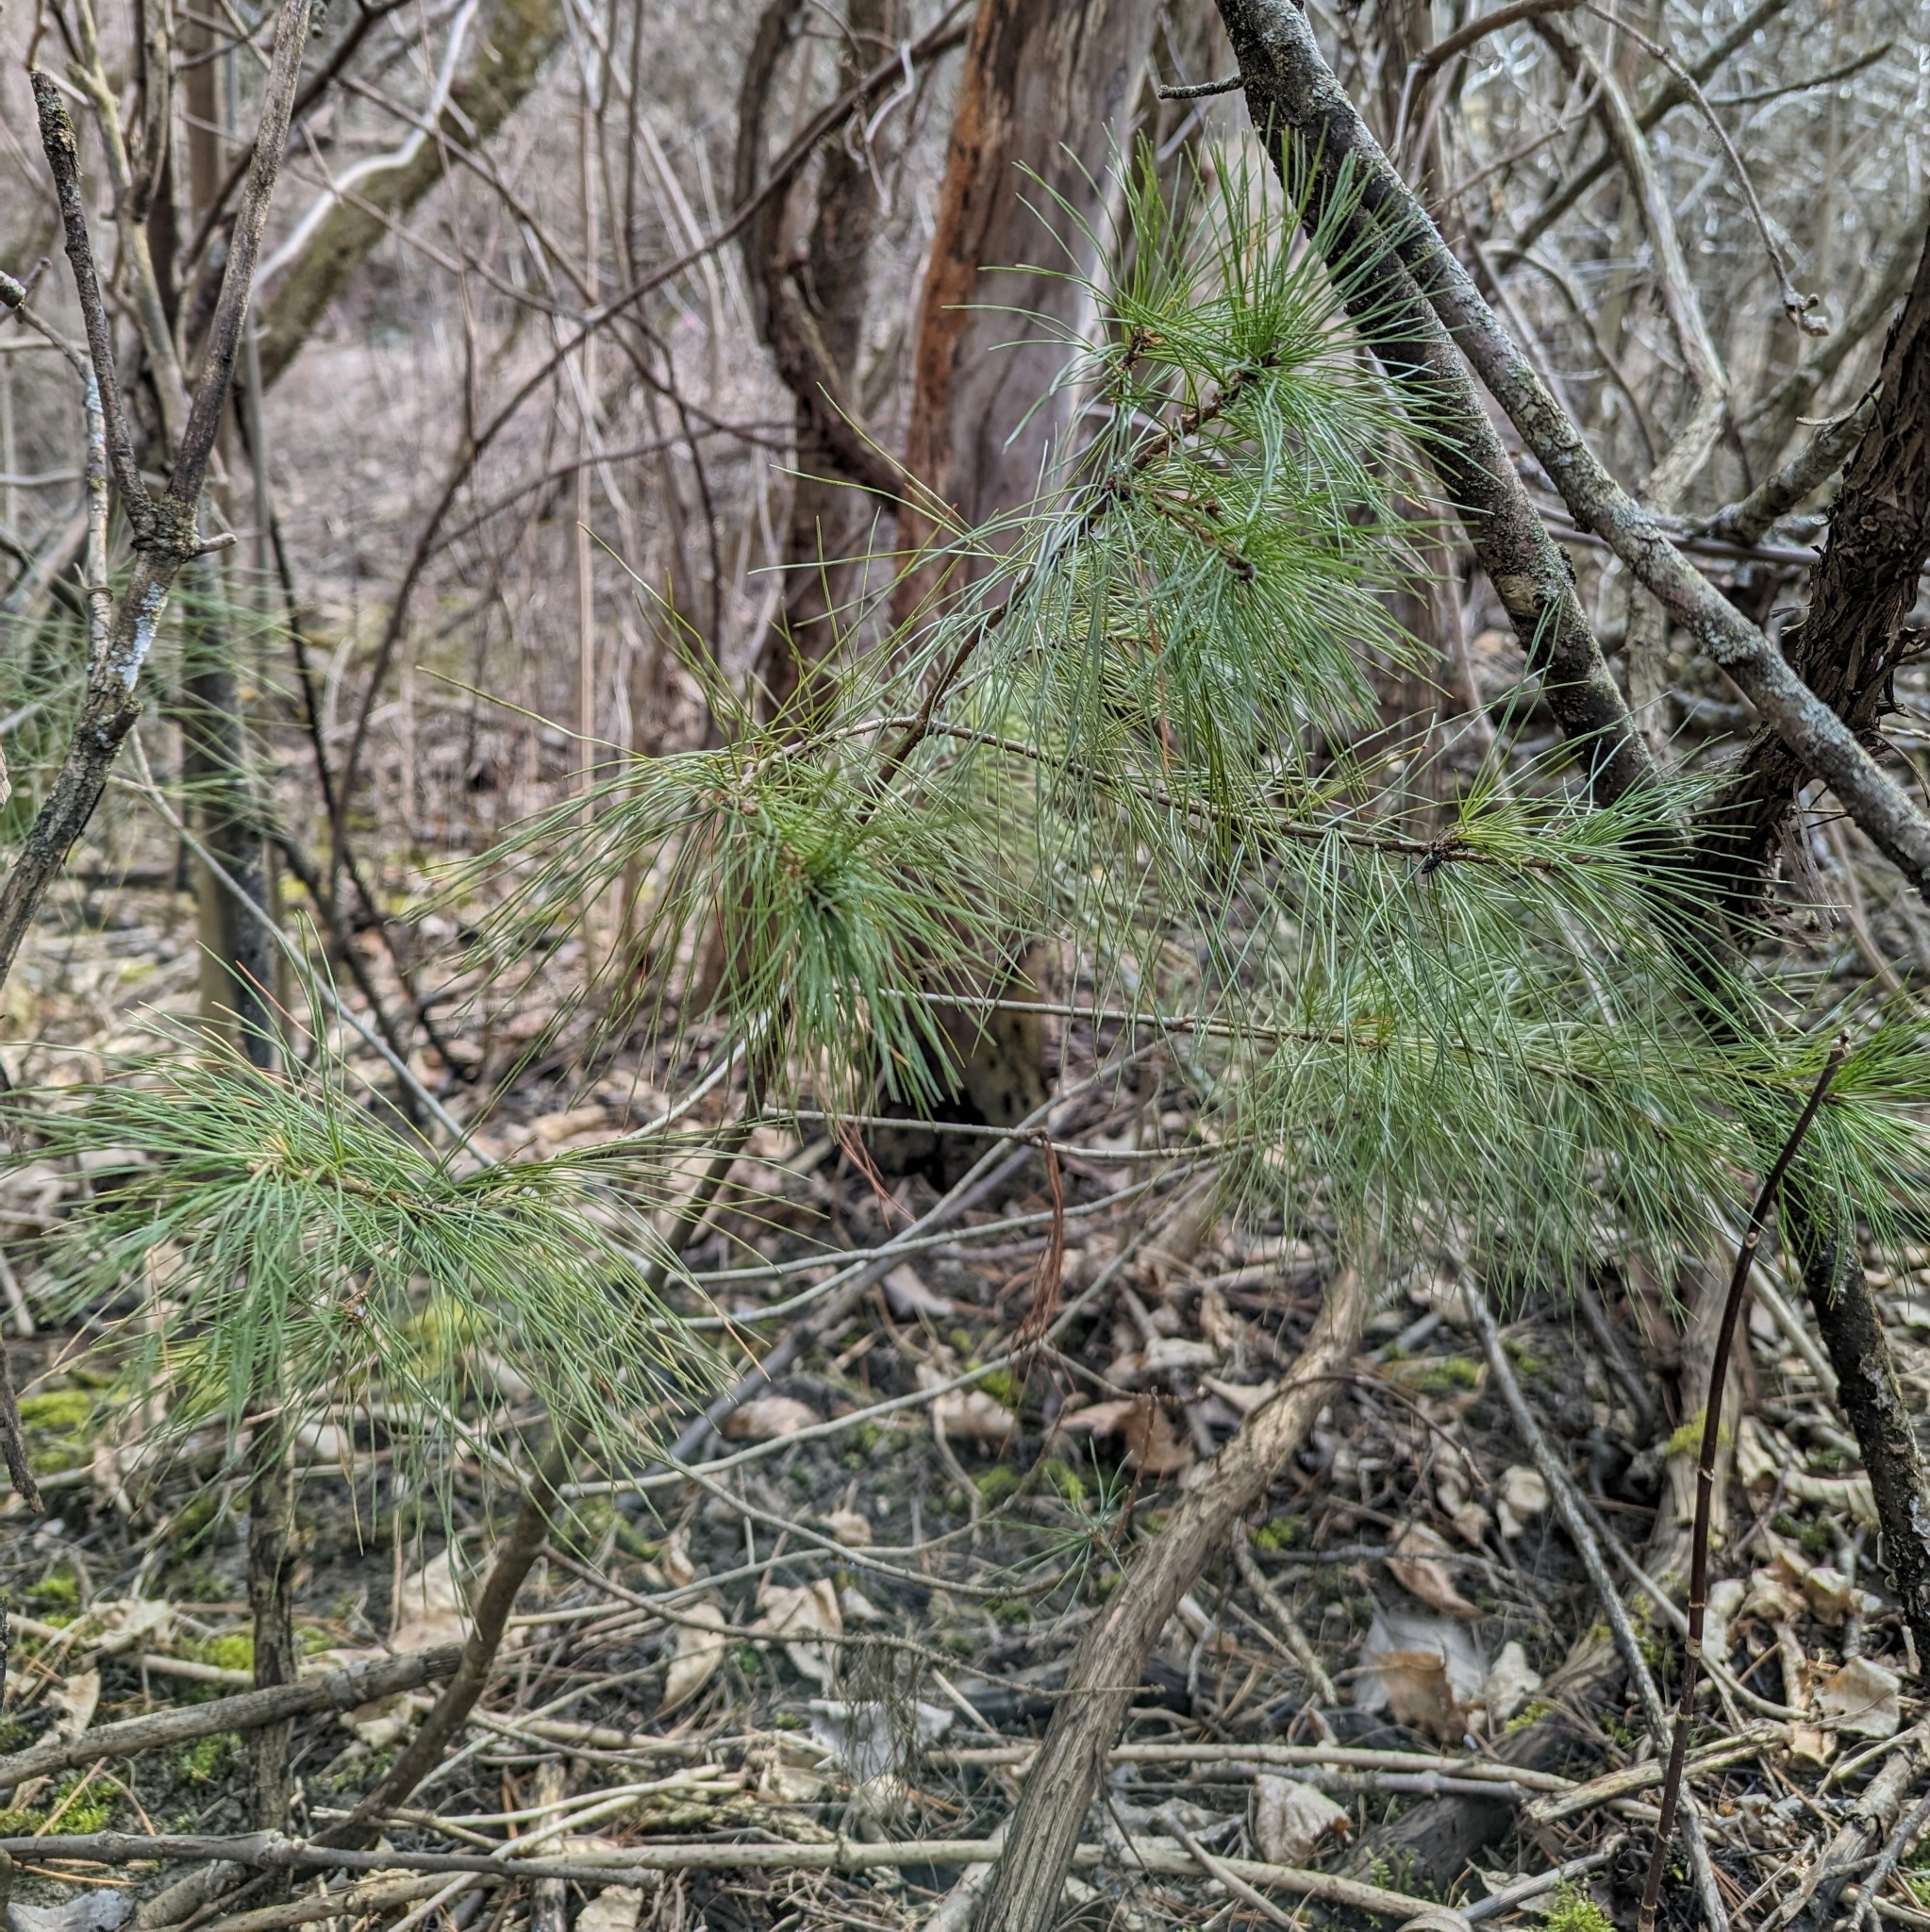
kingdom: Plantae
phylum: Tracheophyta
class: Pinopsida
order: Pinales
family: Pinaceae
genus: Pinus
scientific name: Pinus strobus
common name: Weymouth pine
